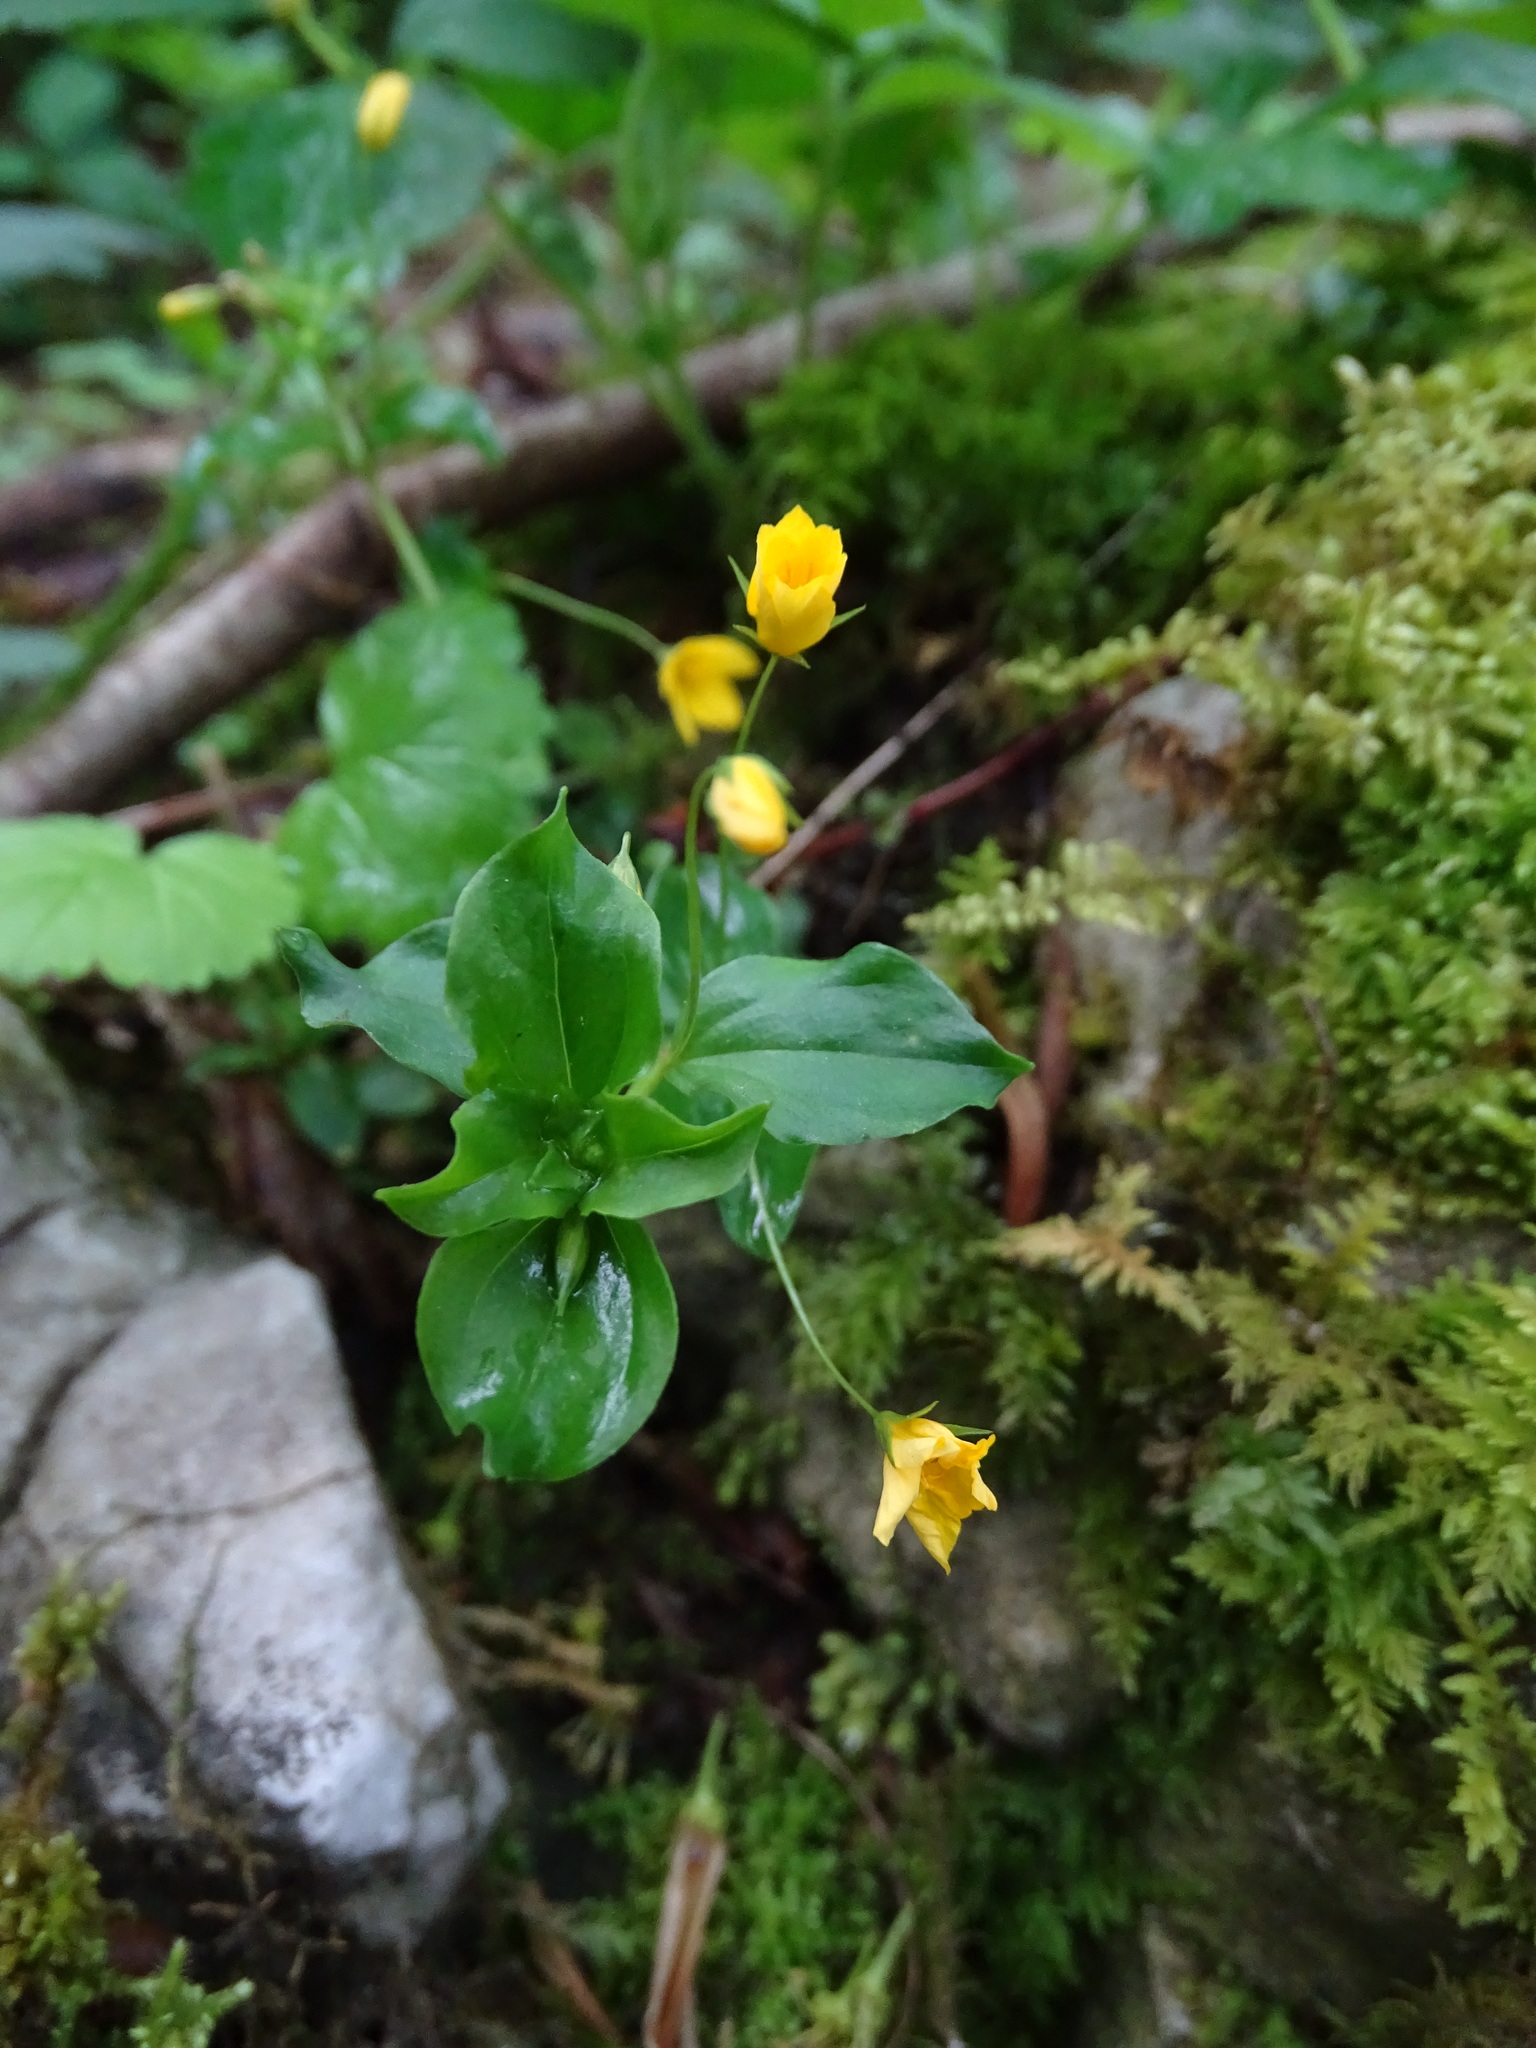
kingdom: Plantae
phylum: Tracheophyta
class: Magnoliopsida
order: Ericales
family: Primulaceae
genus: Lysimachia
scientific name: Lysimachia nemorum
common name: Yellow pimpernel
